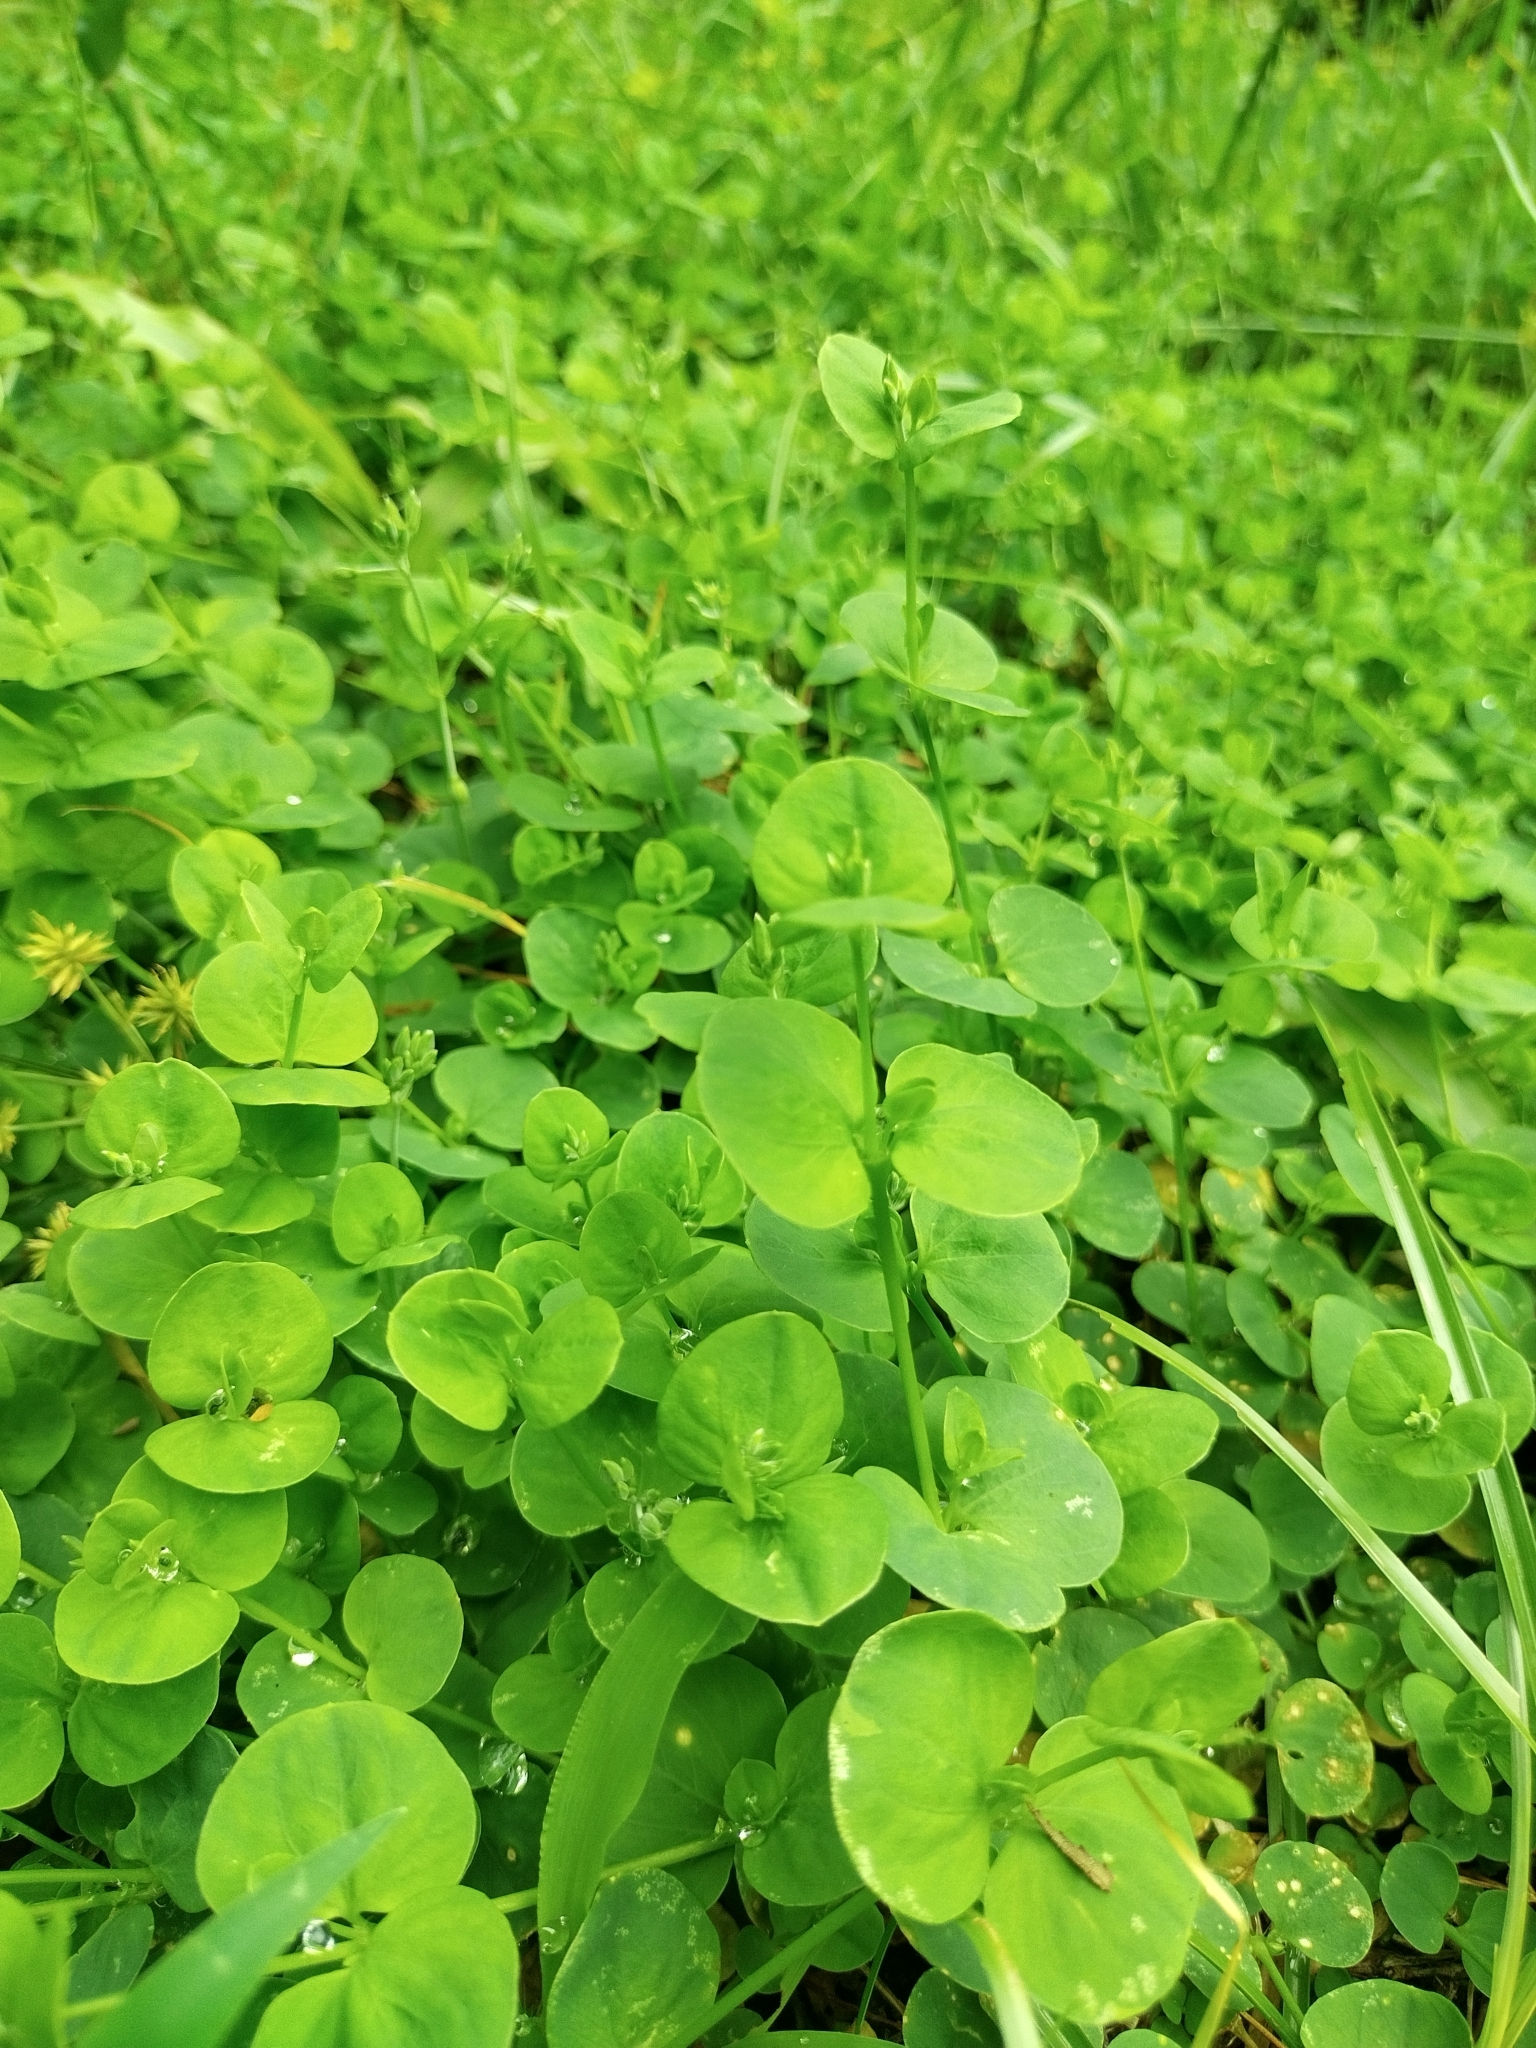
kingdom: Plantae
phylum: Tracheophyta
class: Magnoliopsida
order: Caryophyllales
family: Caryophyllaceae
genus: Drymaria
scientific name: Drymaria cordata
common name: Whitesnow
